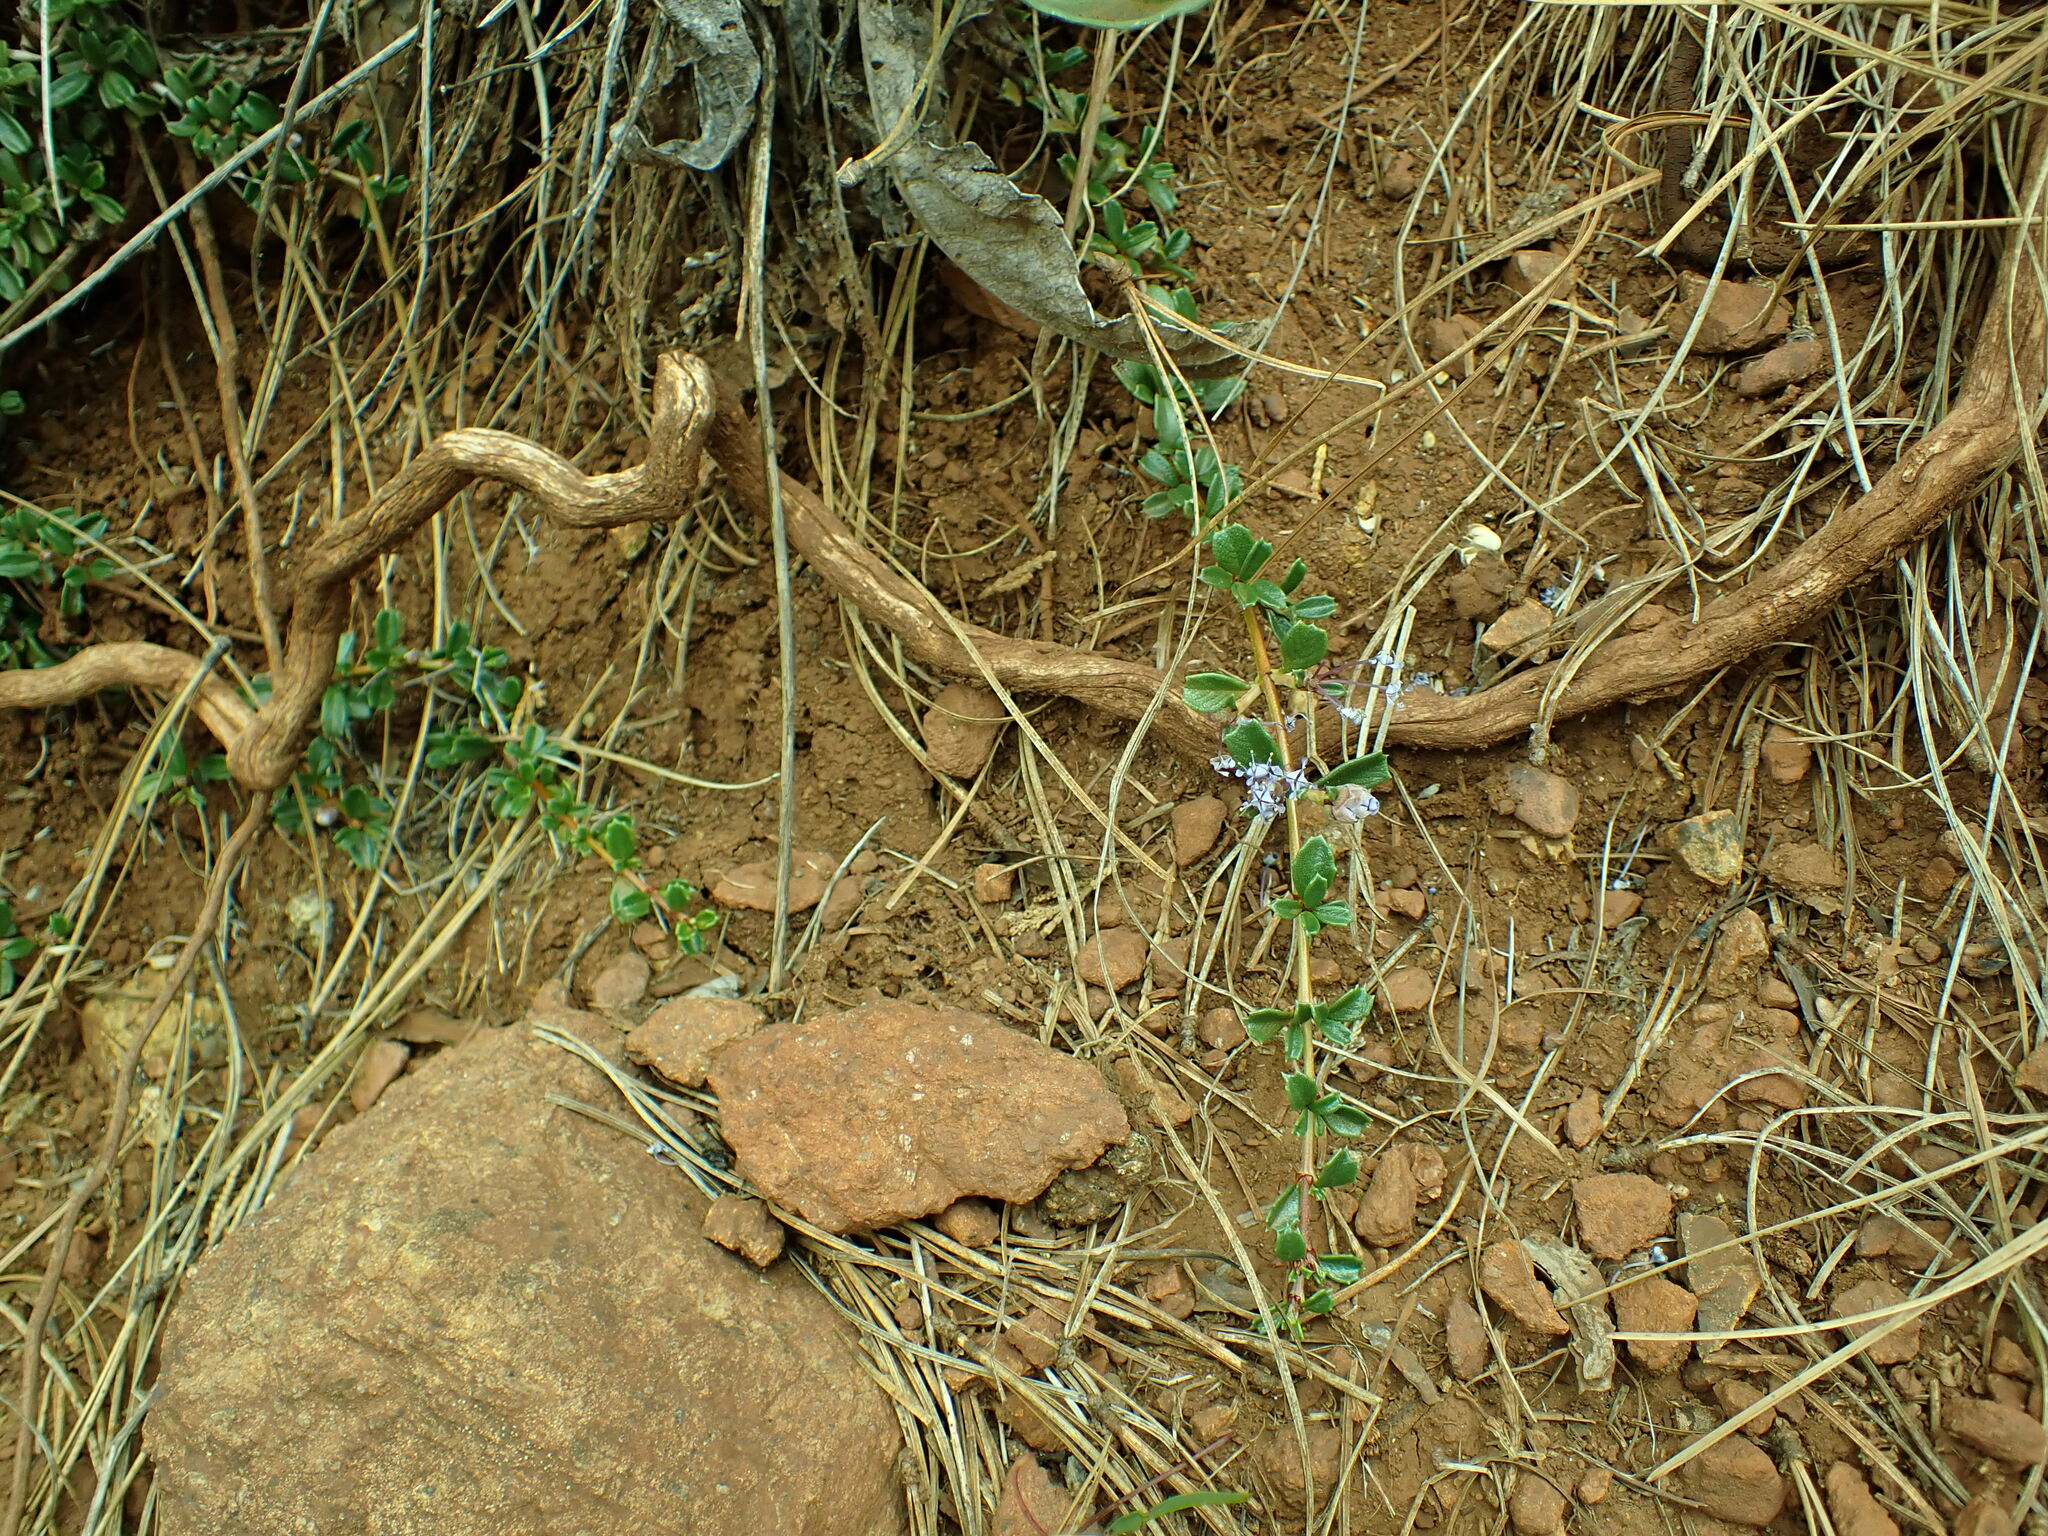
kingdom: Plantae
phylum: Tracheophyta
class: Magnoliopsida
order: Rosales
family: Rhamnaceae
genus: Ceanothus
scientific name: Ceanothus pumilus
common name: Siskiyou-mat
